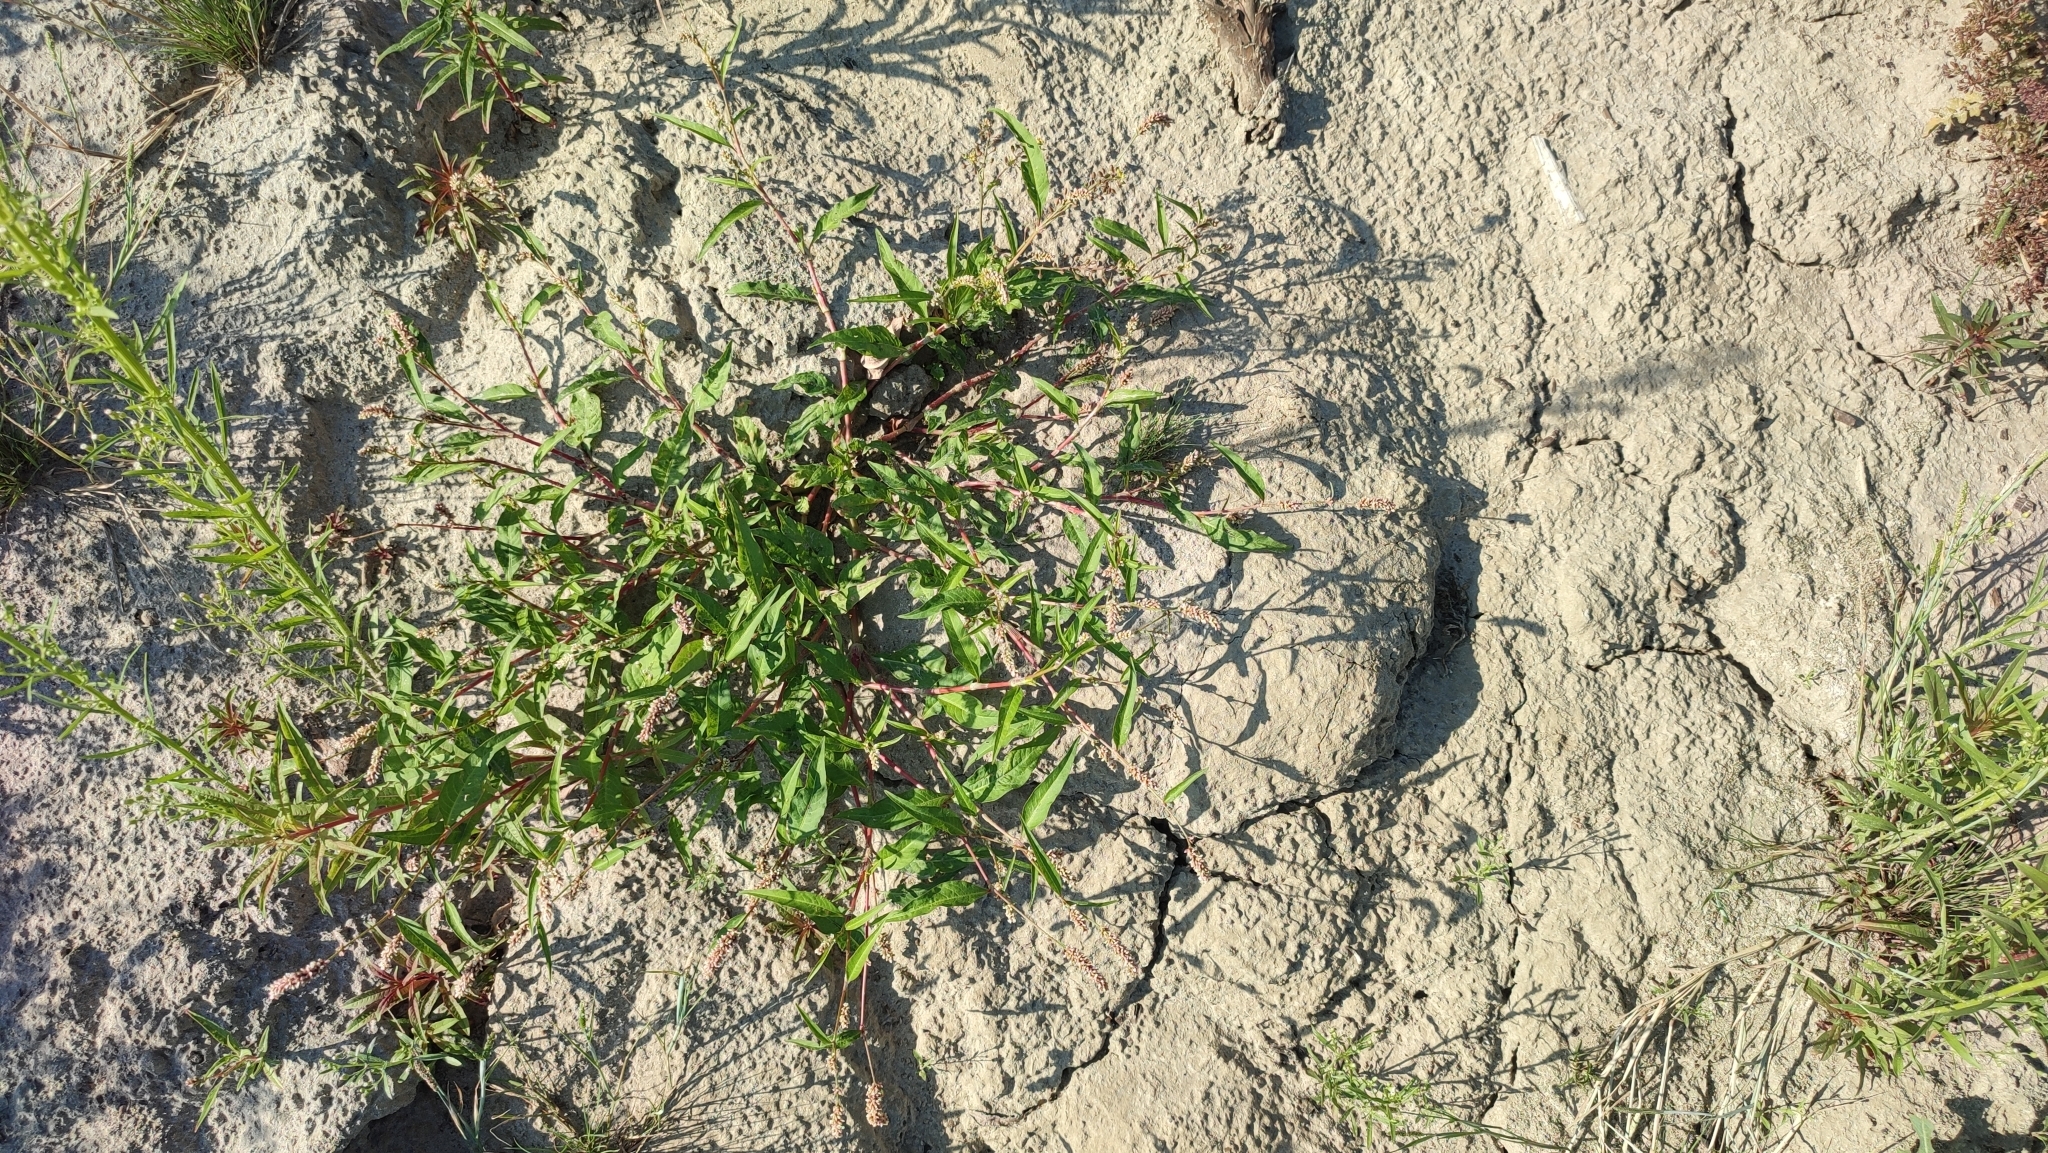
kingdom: Plantae
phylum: Tracheophyta
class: Magnoliopsida
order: Caryophyllales
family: Polygonaceae
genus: Persicaria
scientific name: Persicaria lapathifolia
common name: Curlytop knotweed
